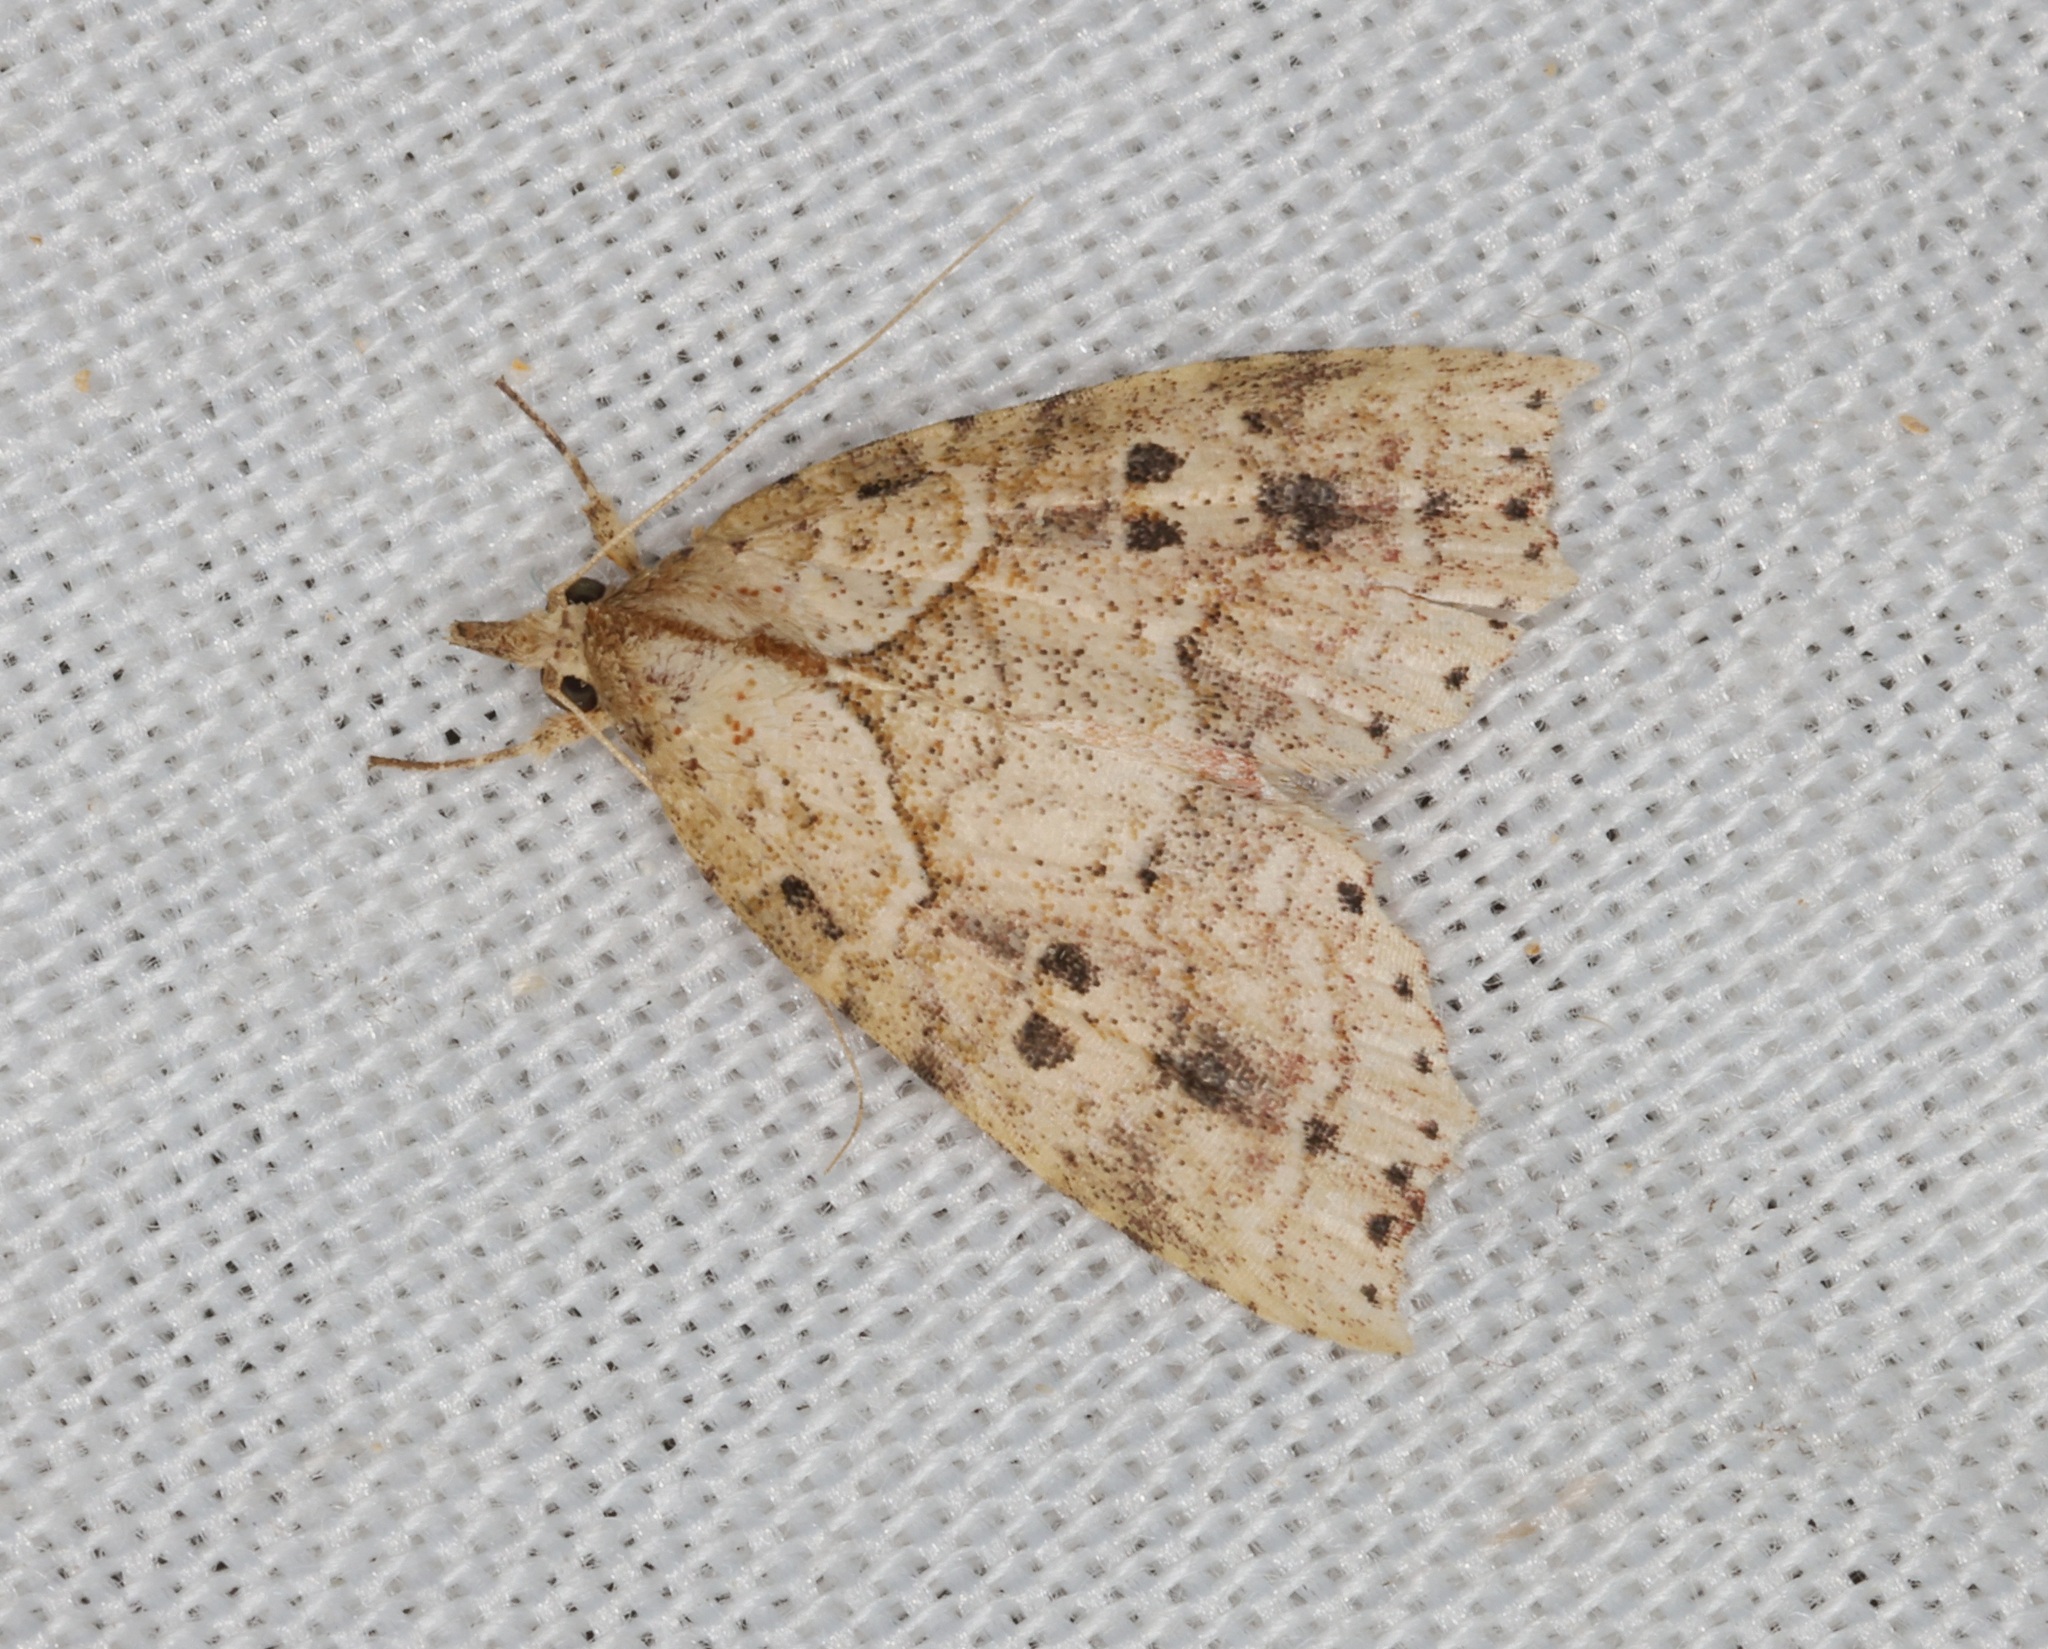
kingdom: Animalia
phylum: Arthropoda
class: Insecta
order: Lepidoptera
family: Erebidae
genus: Olulis
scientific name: Olulis puncticinctalis
